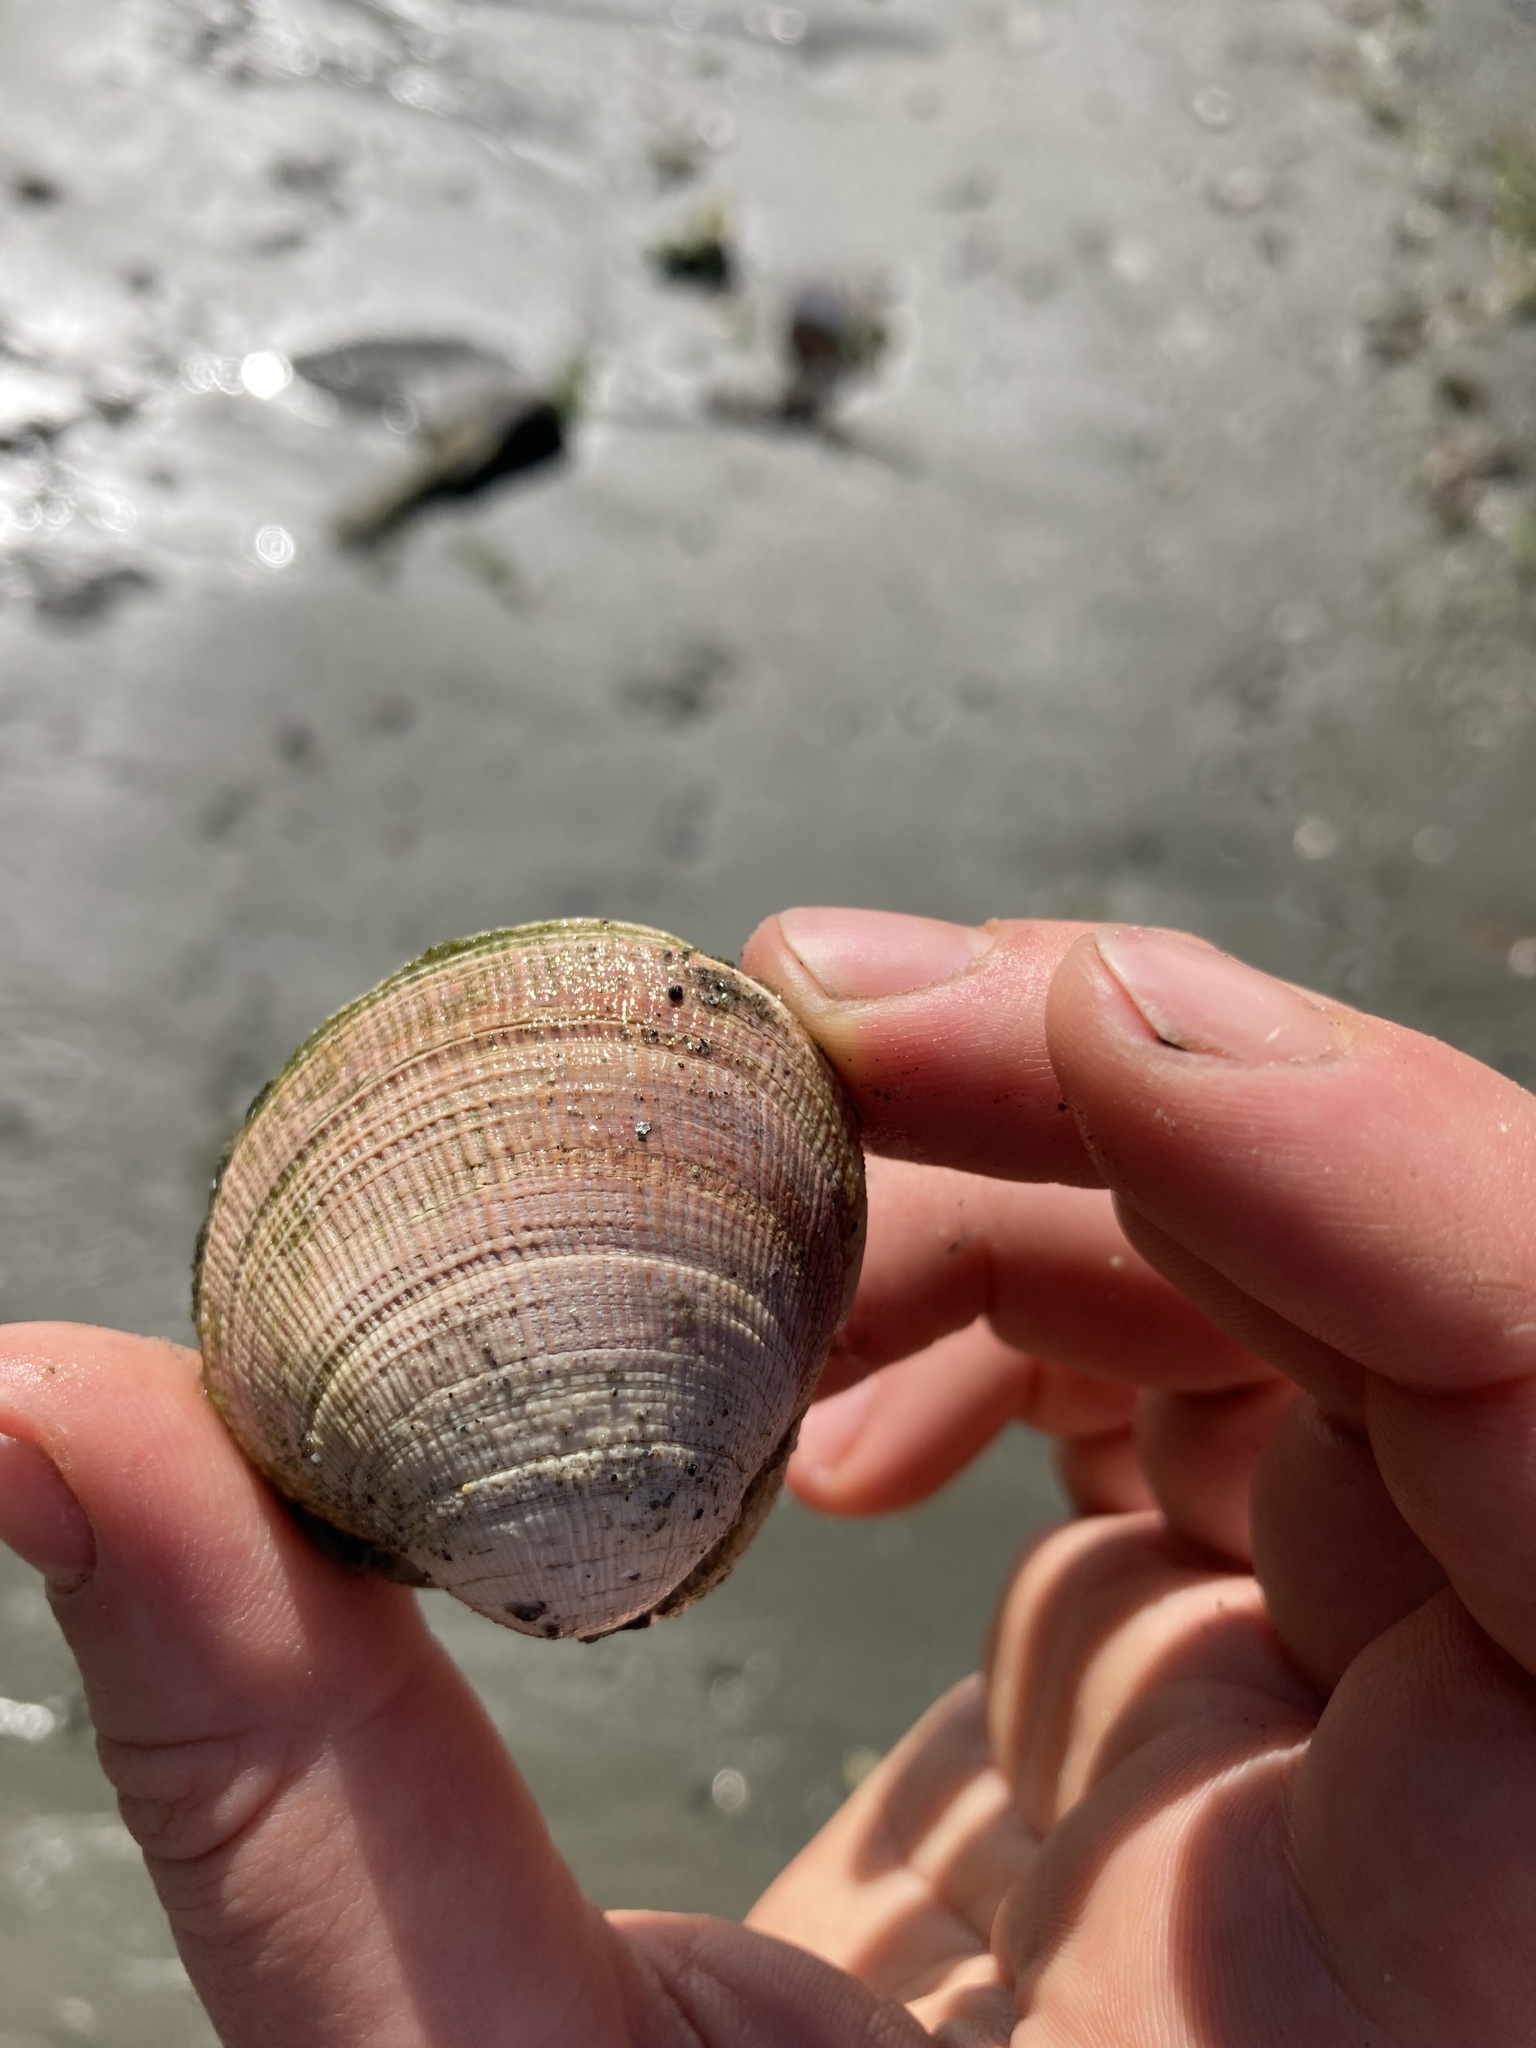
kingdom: Animalia
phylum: Mollusca
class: Bivalvia
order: Venerida
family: Veneridae
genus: Leukoma
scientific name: Leukoma staminea
